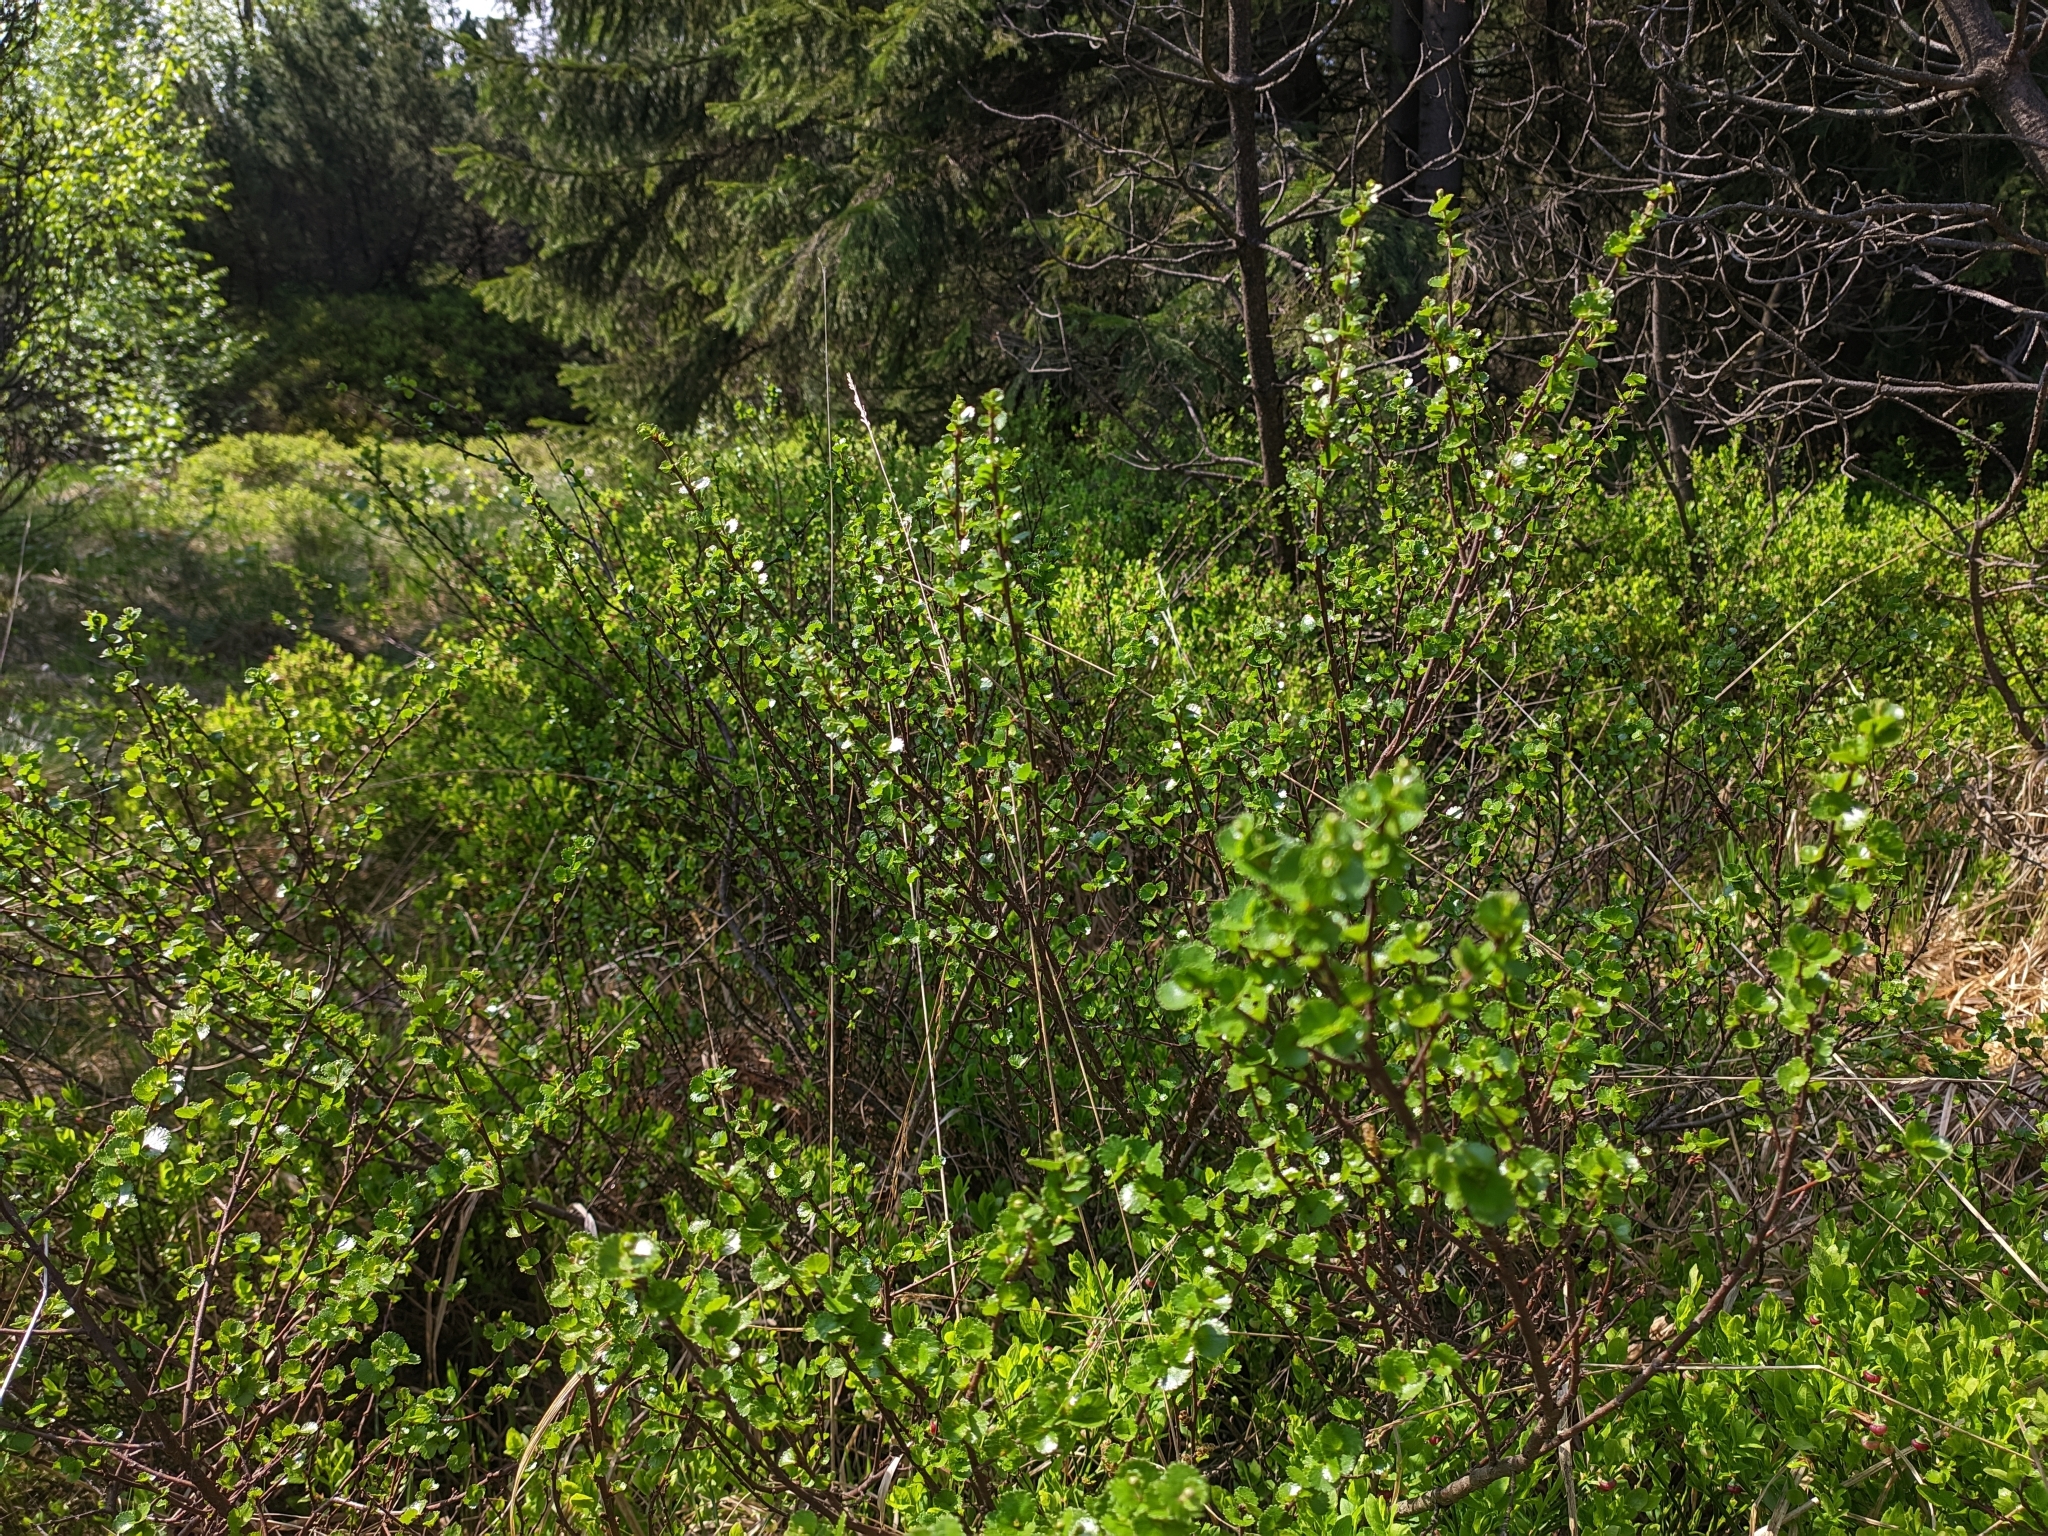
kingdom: Plantae
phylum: Tracheophyta
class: Magnoliopsida
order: Fagales
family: Betulaceae
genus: Betula
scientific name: Betula nana
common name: Arctic dwarf birch
